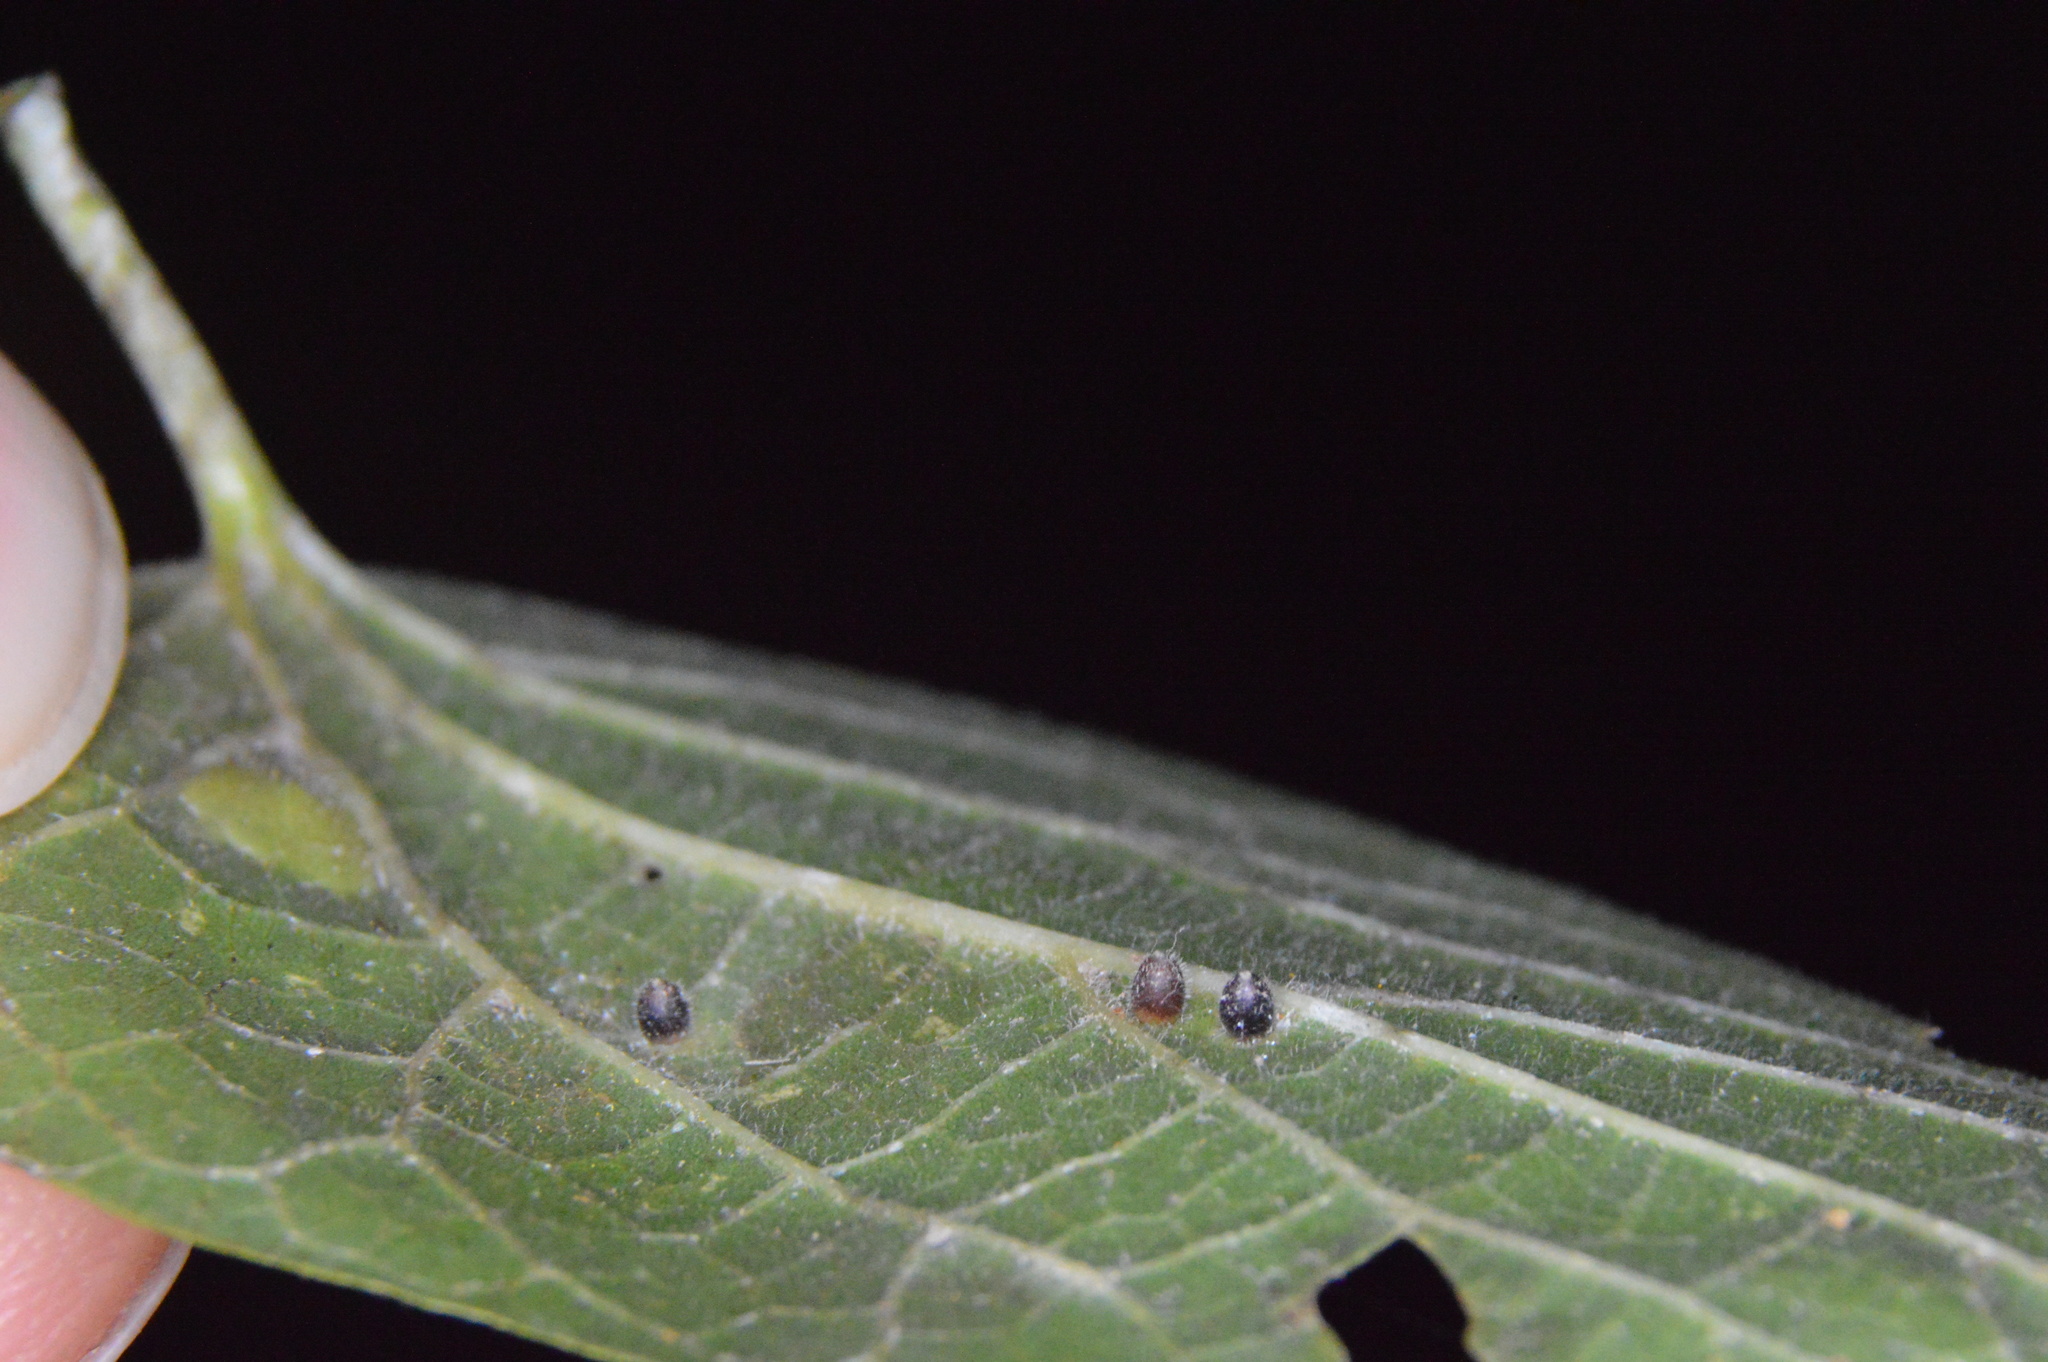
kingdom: Animalia
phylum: Arthropoda
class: Insecta
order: Diptera
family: Cecidomyiidae
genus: Celticecis
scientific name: Celticecis cupiformis
